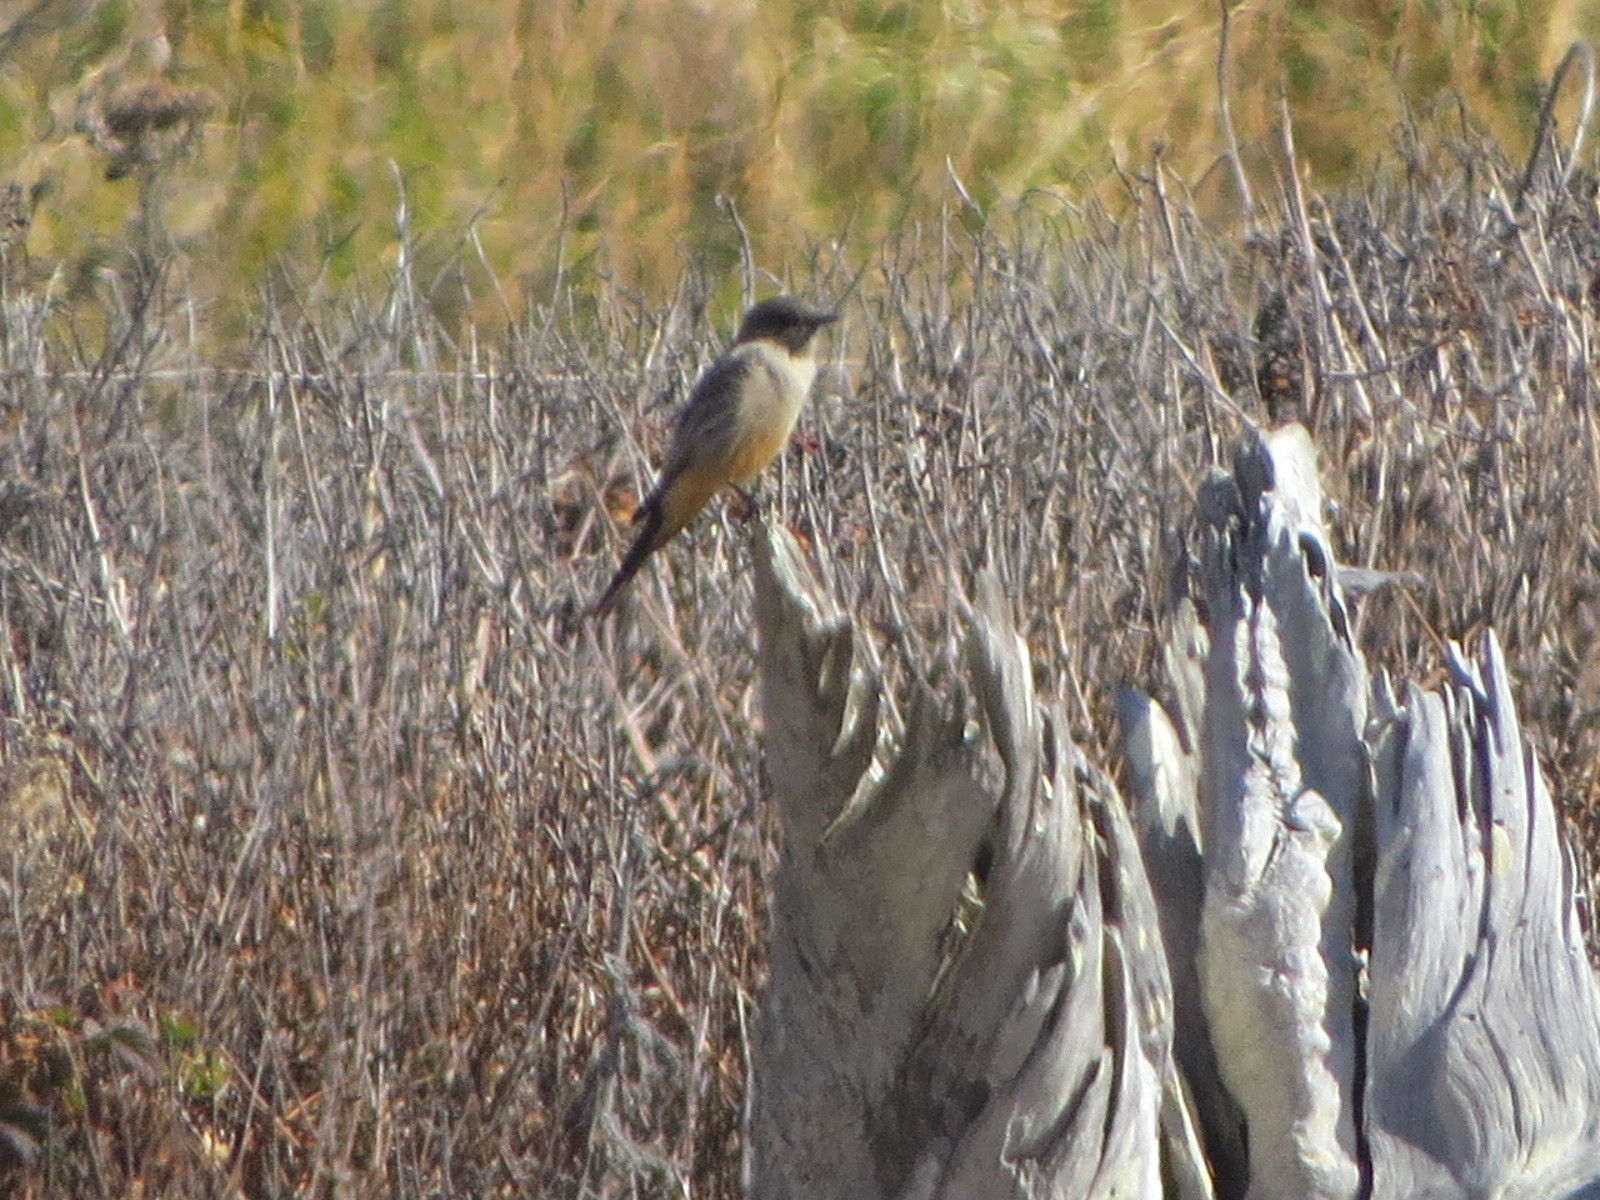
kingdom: Animalia
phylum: Chordata
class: Aves
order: Passeriformes
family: Tyrannidae
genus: Sayornis
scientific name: Sayornis saya
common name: Say's phoebe
